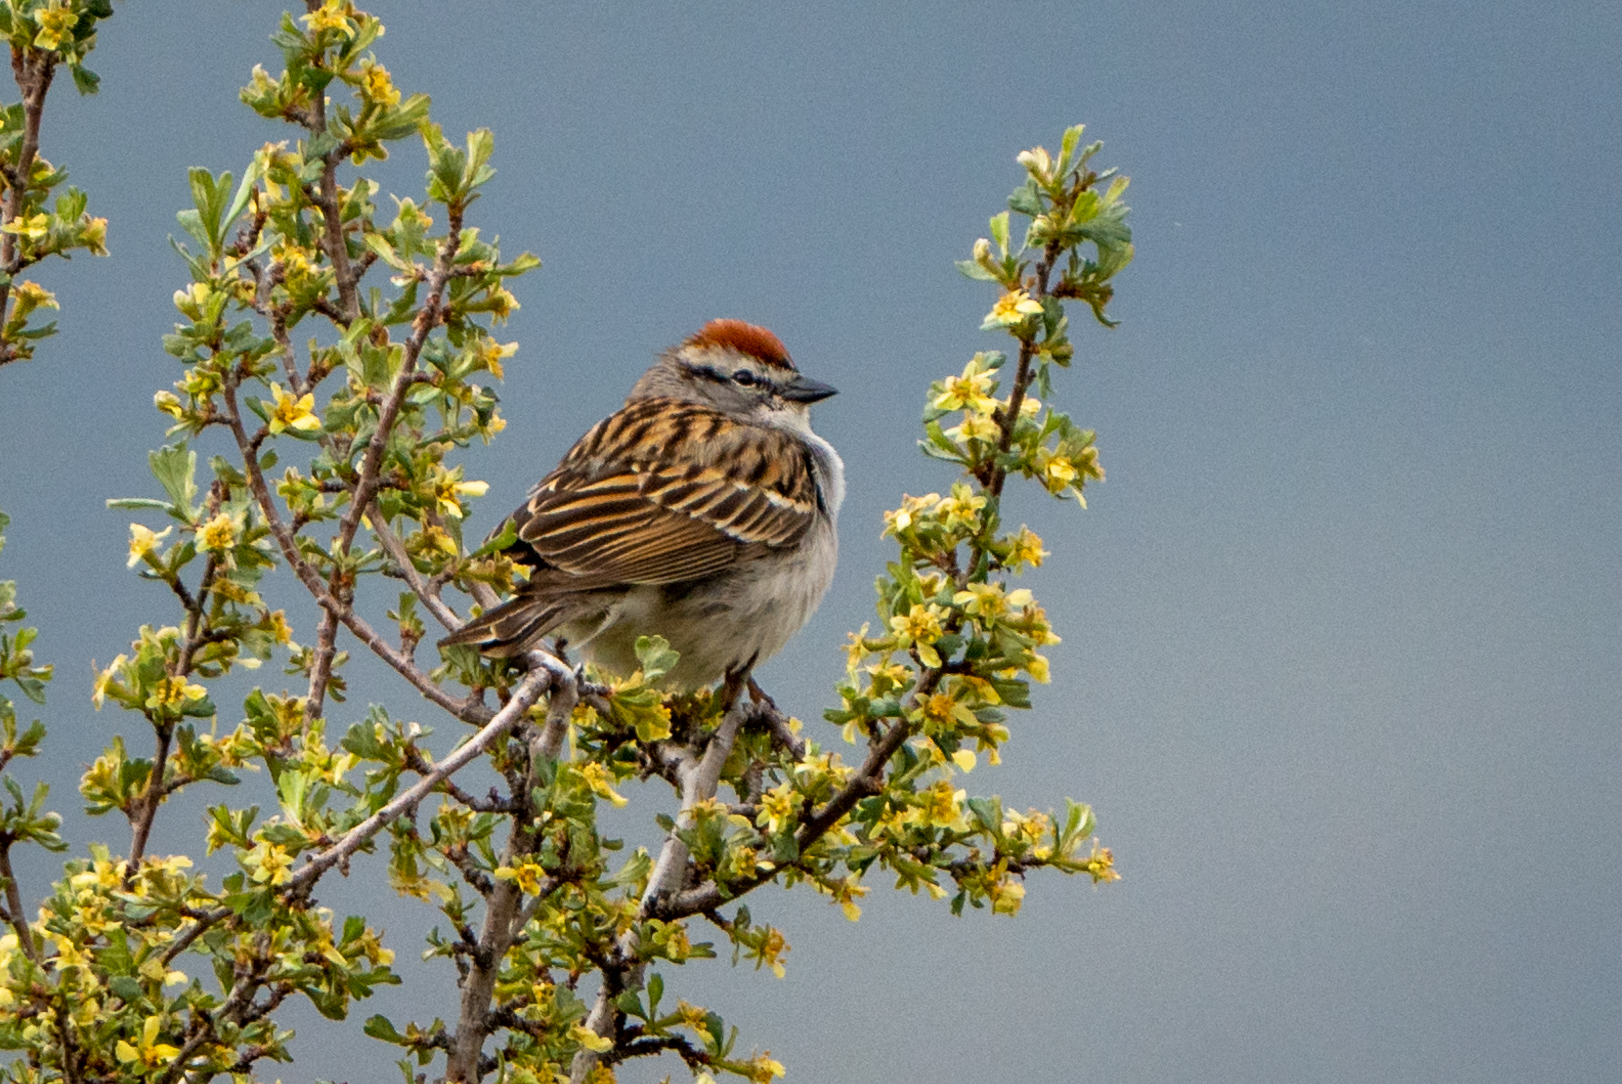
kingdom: Animalia
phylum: Chordata
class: Aves
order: Passeriformes
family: Passerellidae
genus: Spizella
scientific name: Spizella passerina
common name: Chipping sparrow
